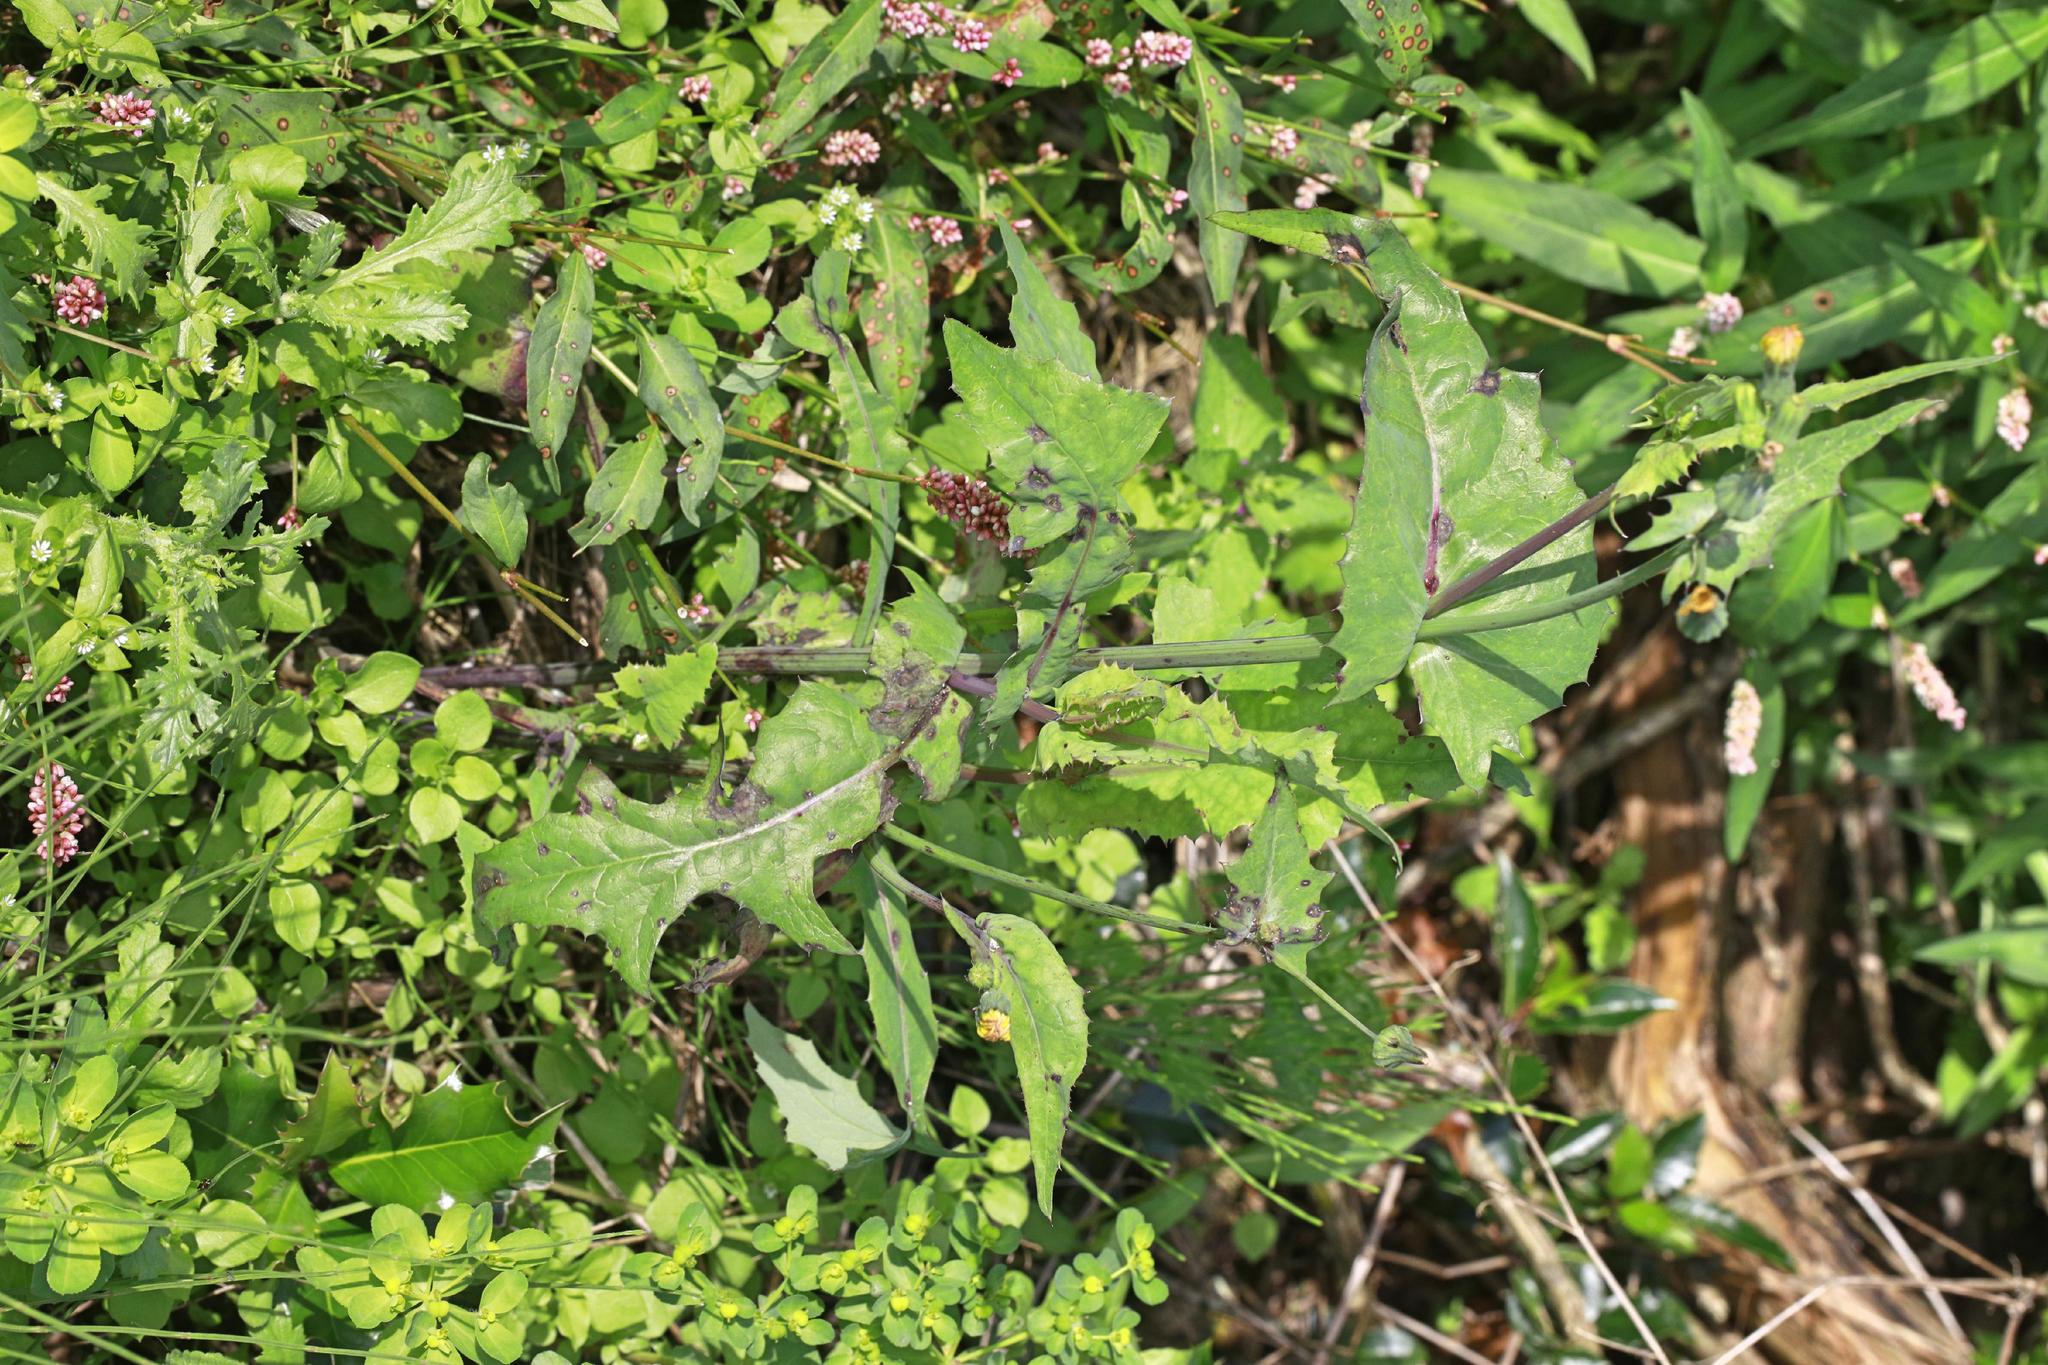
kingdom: Plantae
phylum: Tracheophyta
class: Magnoliopsida
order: Asterales
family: Asteraceae
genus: Sonchus
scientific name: Sonchus oleraceus
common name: Common sowthistle
